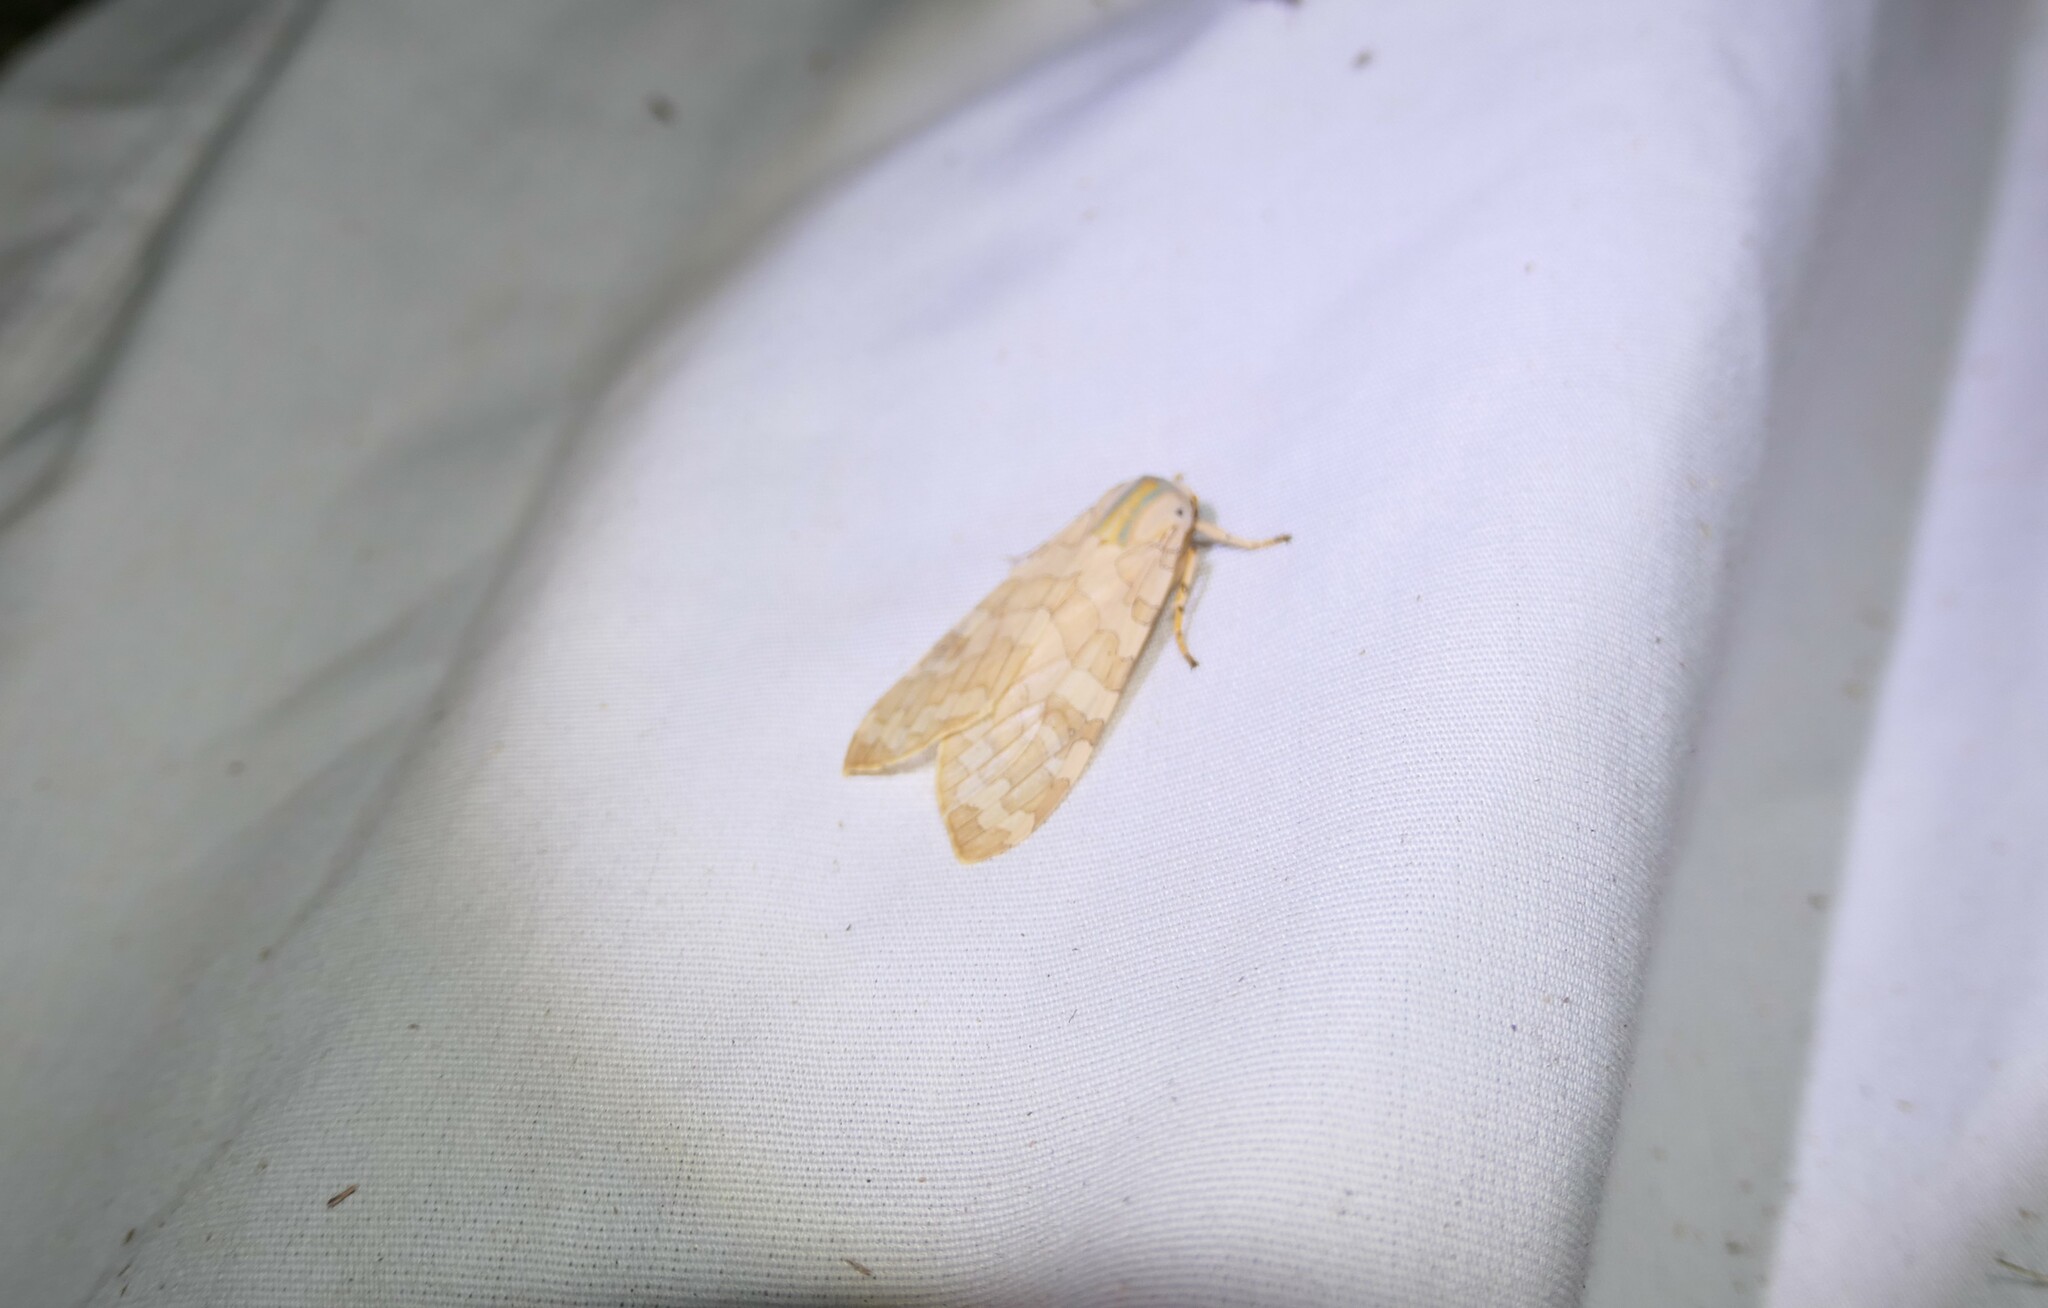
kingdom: Animalia
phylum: Arthropoda
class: Insecta
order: Lepidoptera
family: Erebidae
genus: Halysidota
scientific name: Halysidota
